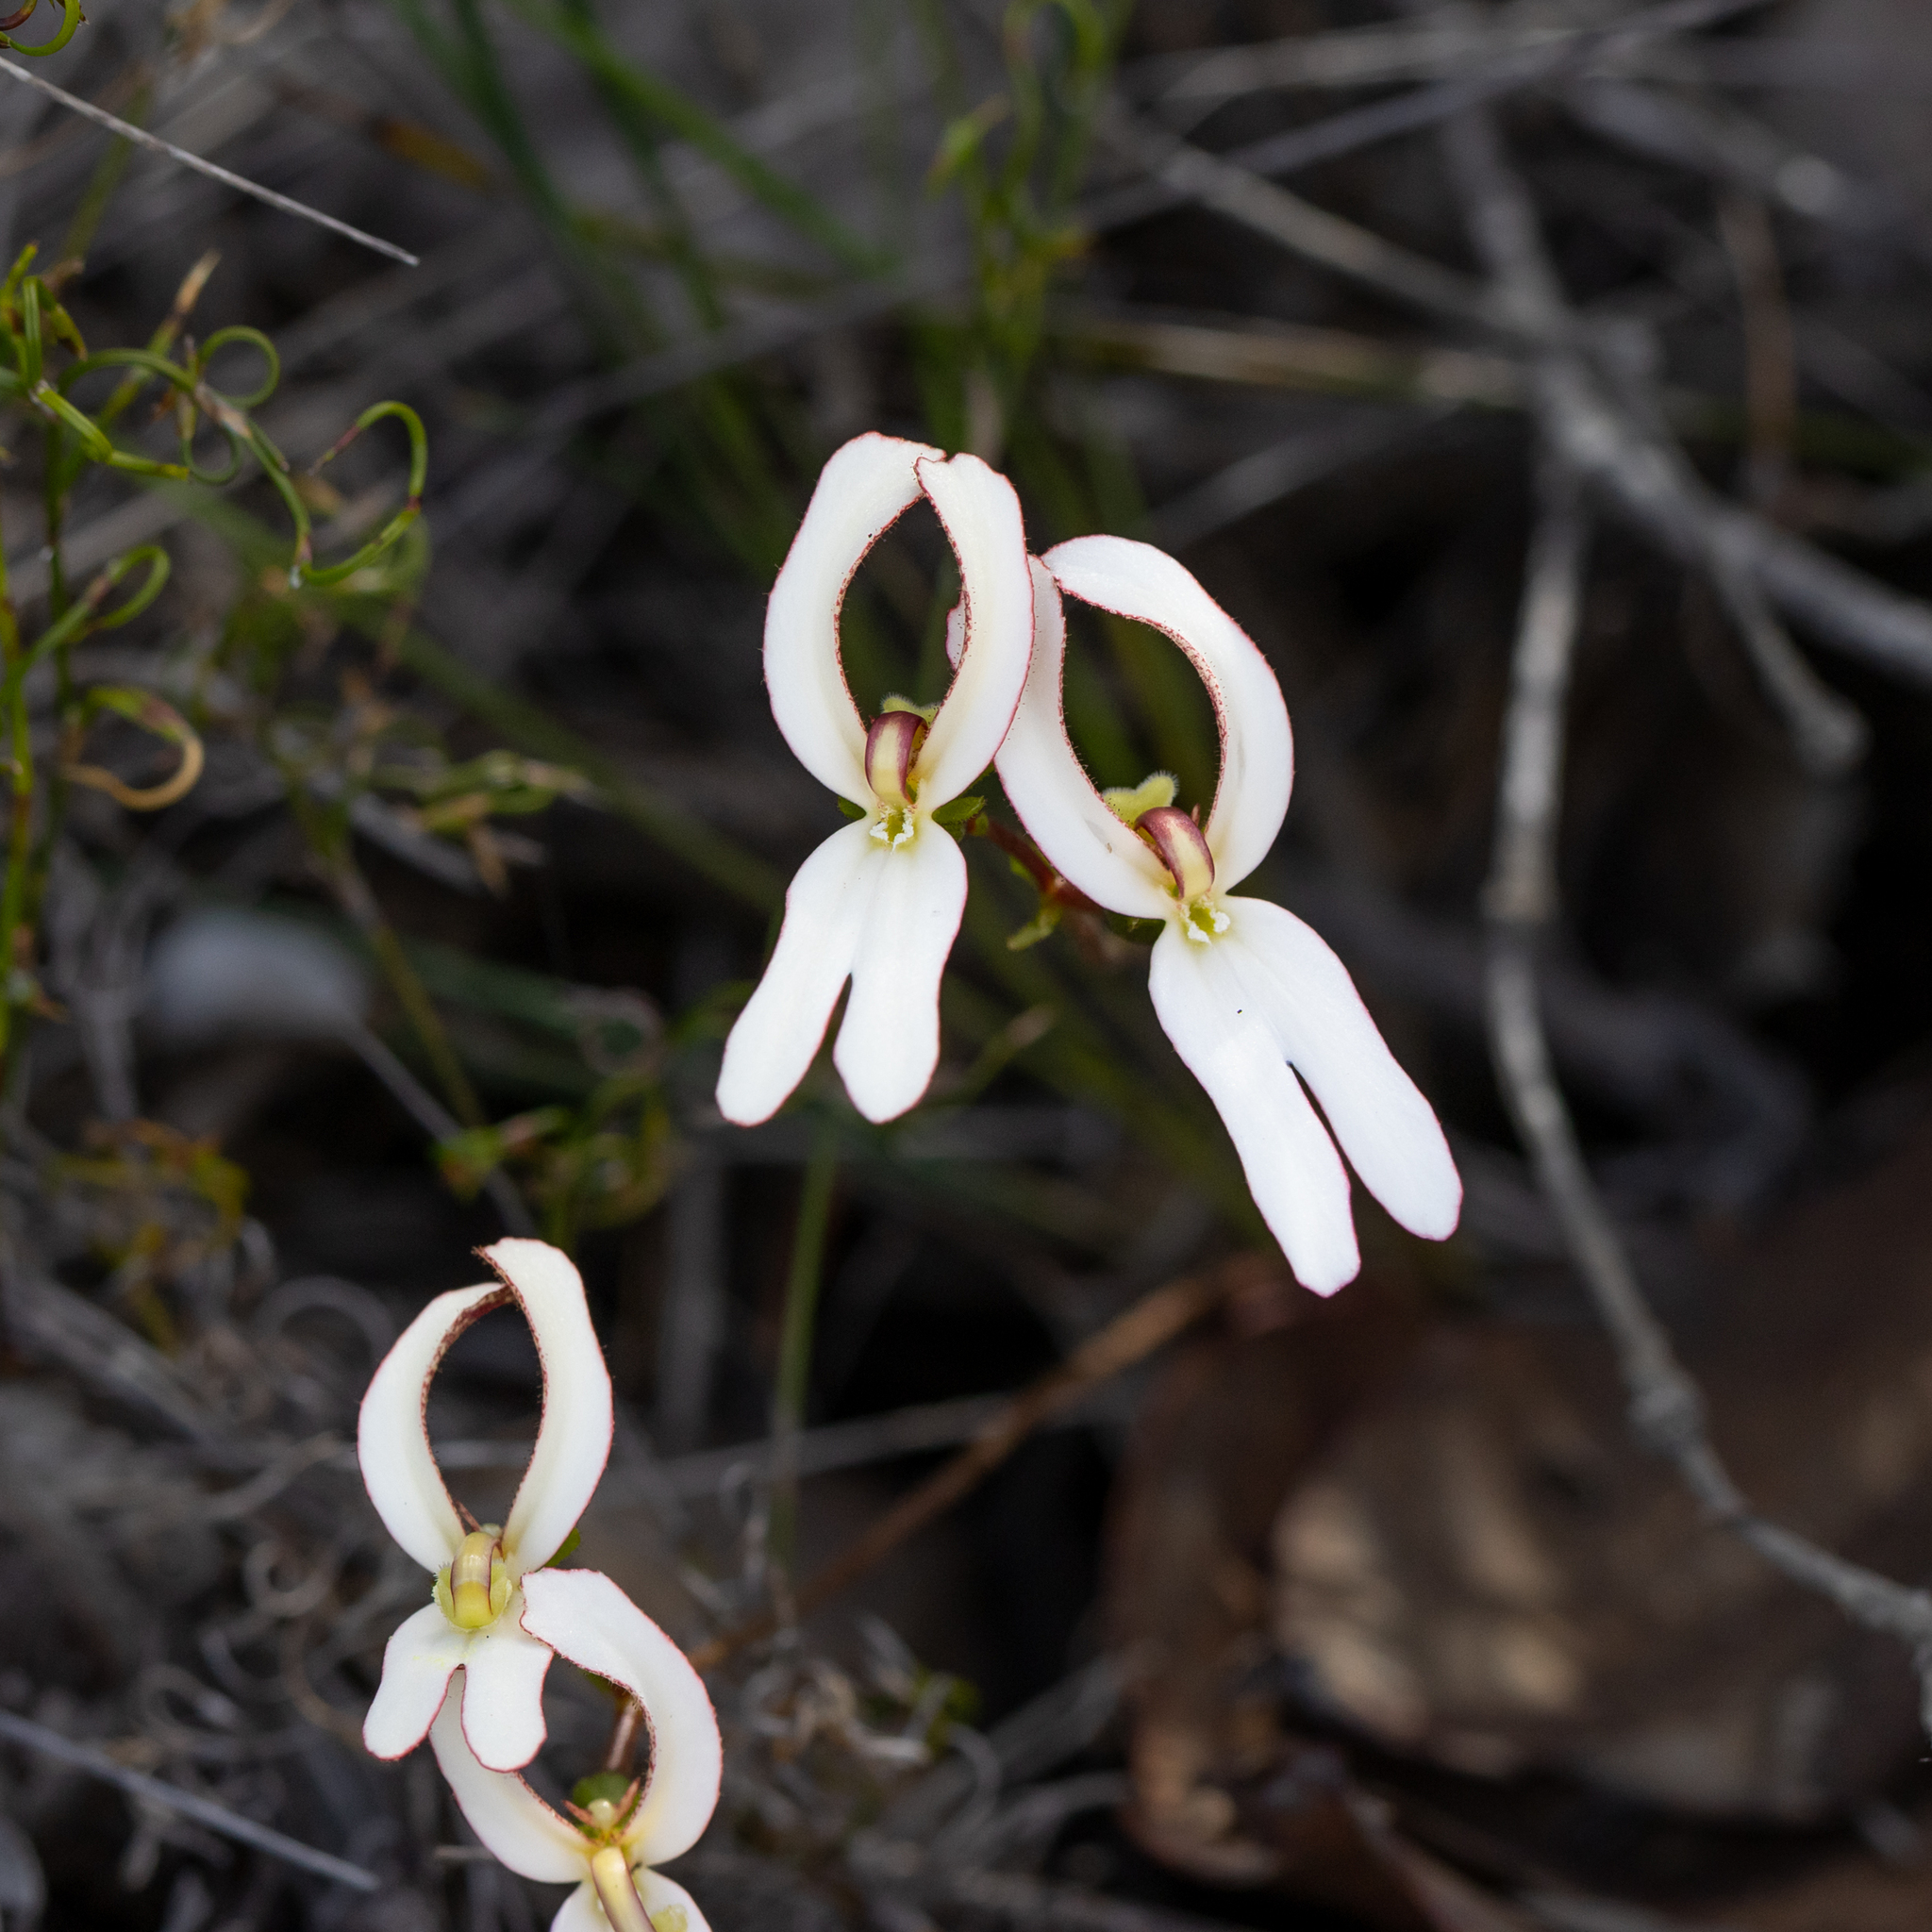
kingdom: Plantae
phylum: Tracheophyta
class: Magnoliopsida
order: Asterales
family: Stylidiaceae
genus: Stylidium
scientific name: Stylidium schoenoides
